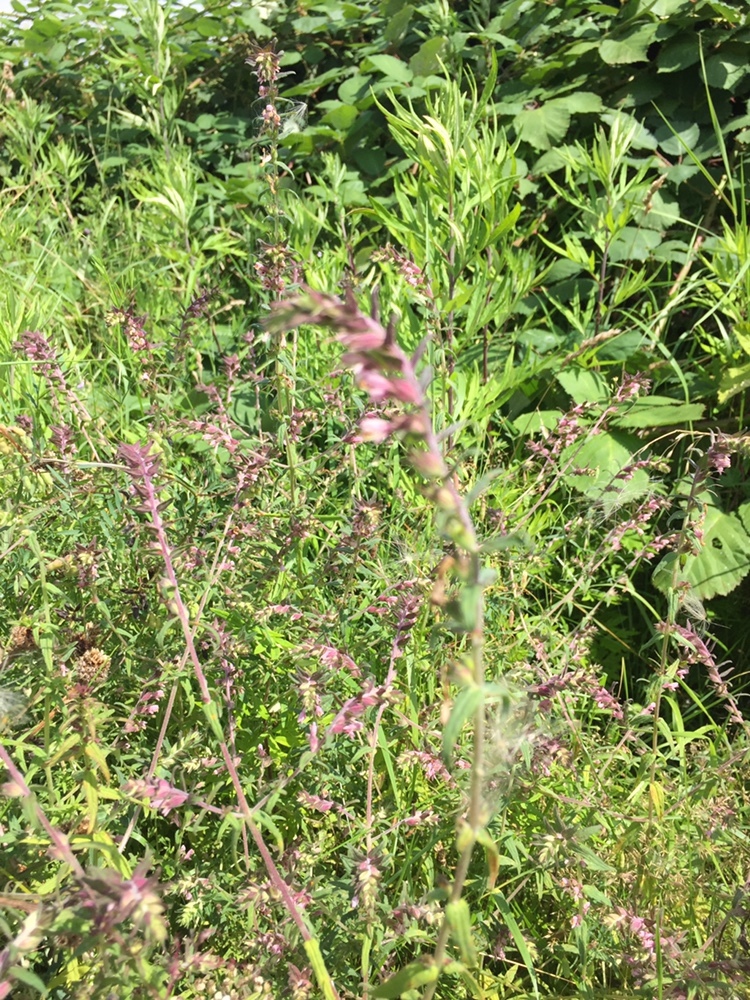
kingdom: Plantae
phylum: Tracheophyta
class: Magnoliopsida
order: Lamiales
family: Orobanchaceae
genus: Odontites
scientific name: Odontites vulgaris
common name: Broomrape
